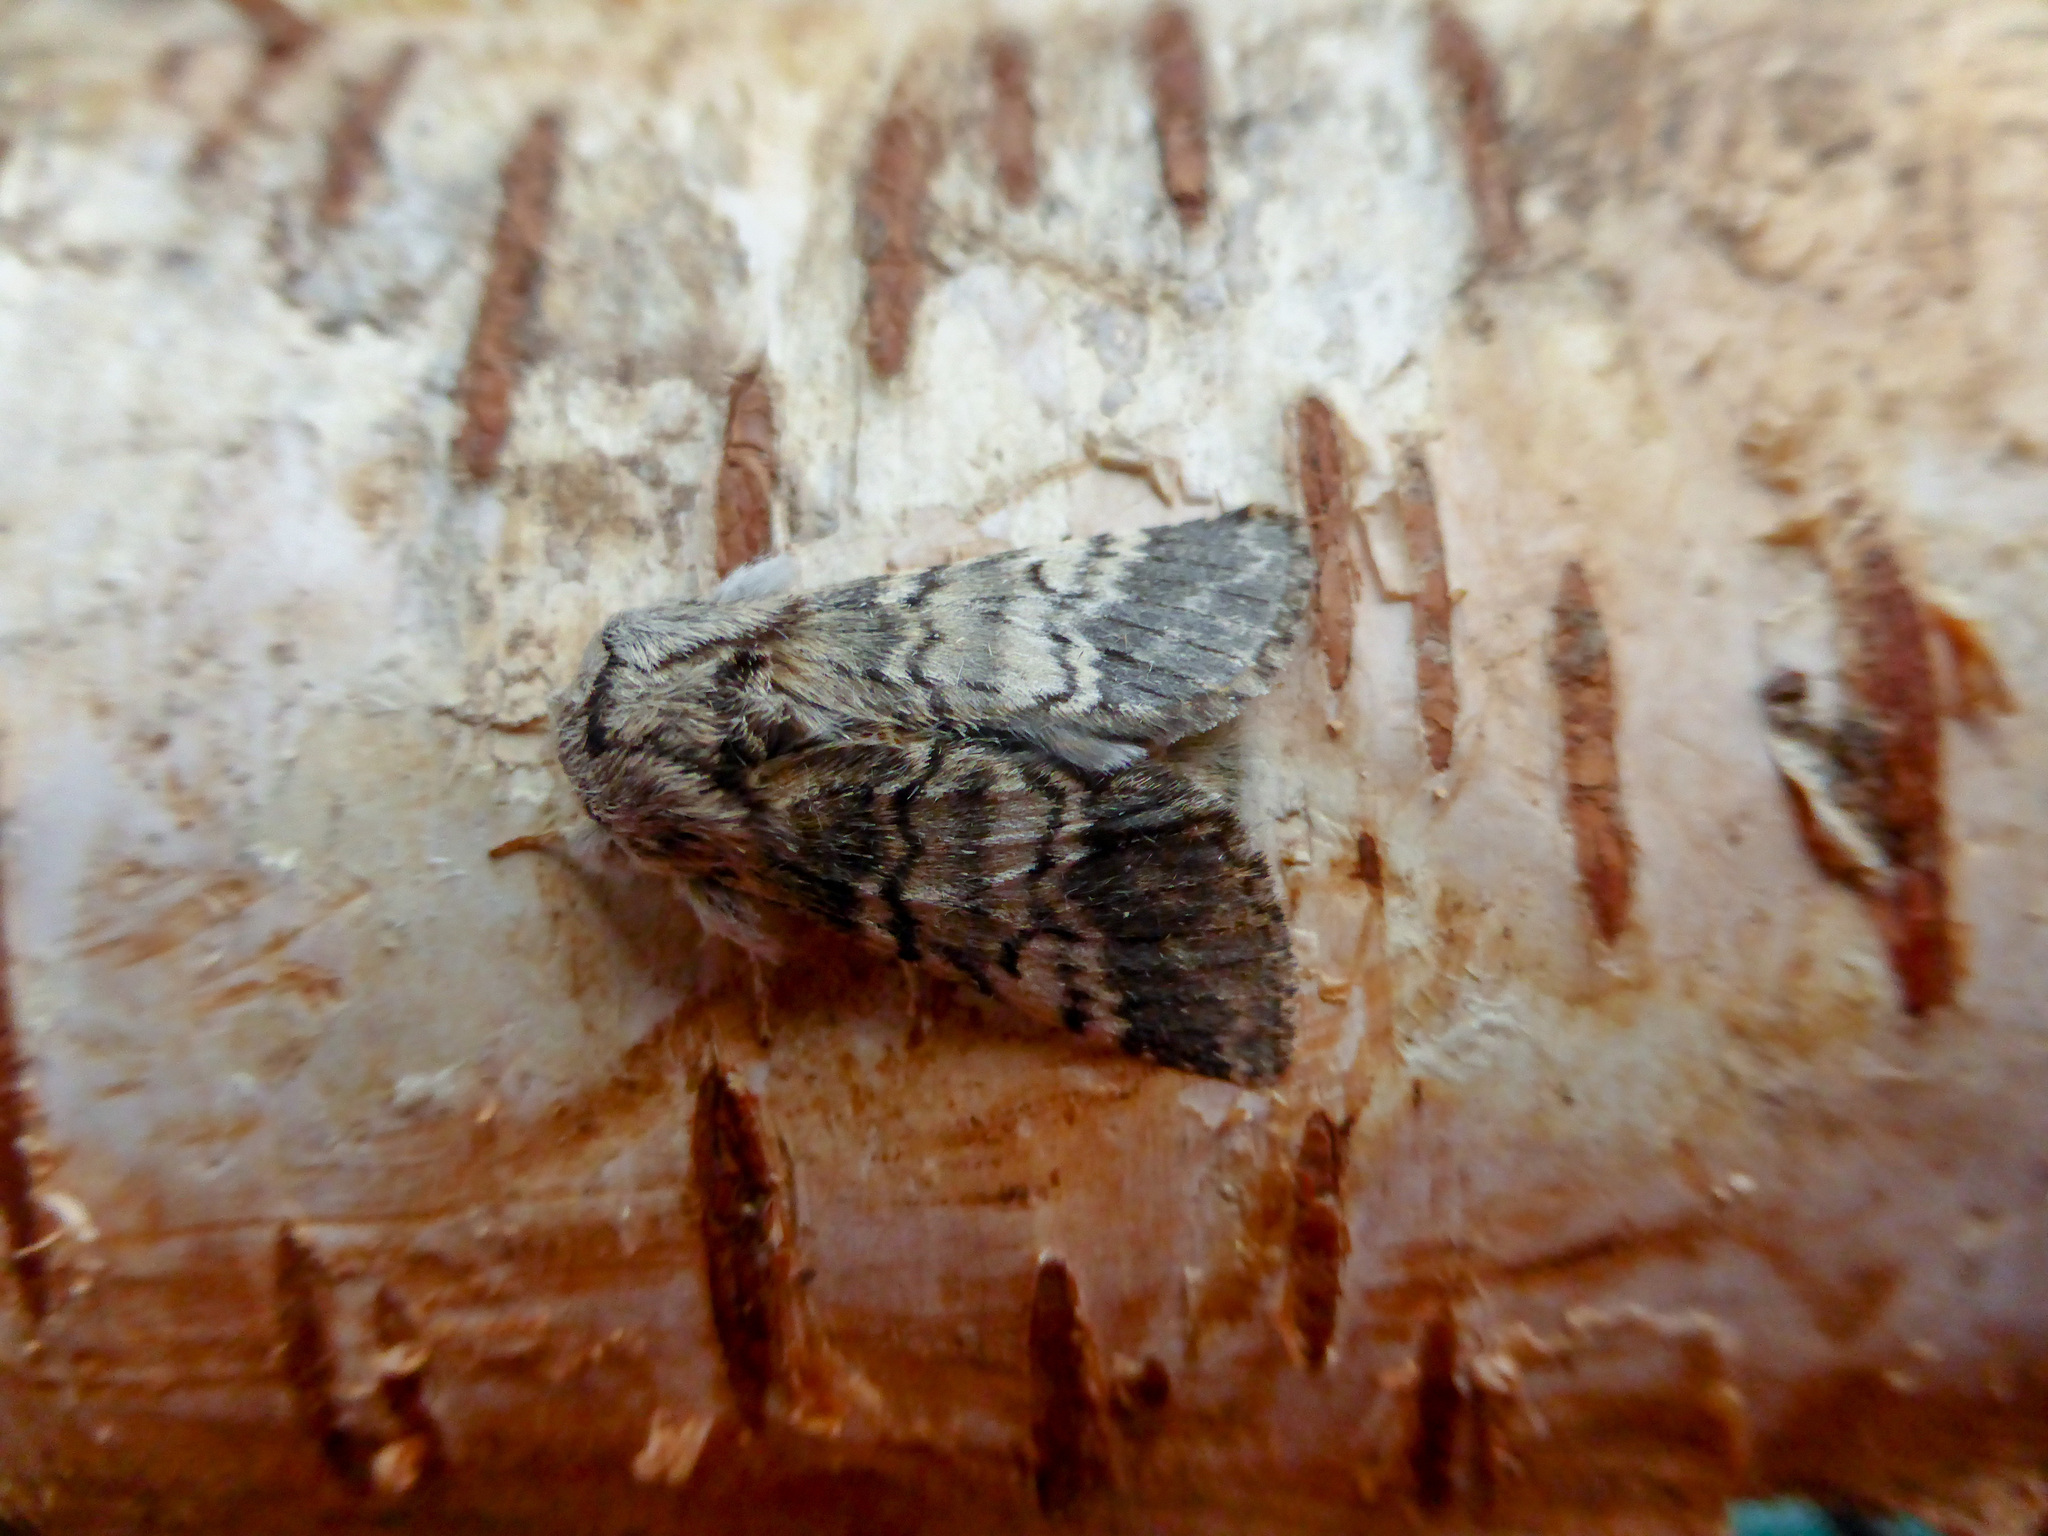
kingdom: Animalia
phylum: Arthropoda
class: Insecta
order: Lepidoptera
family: Notodontidae
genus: Drymonia
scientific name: Drymonia ruficornis
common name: Lunar marbled brown
